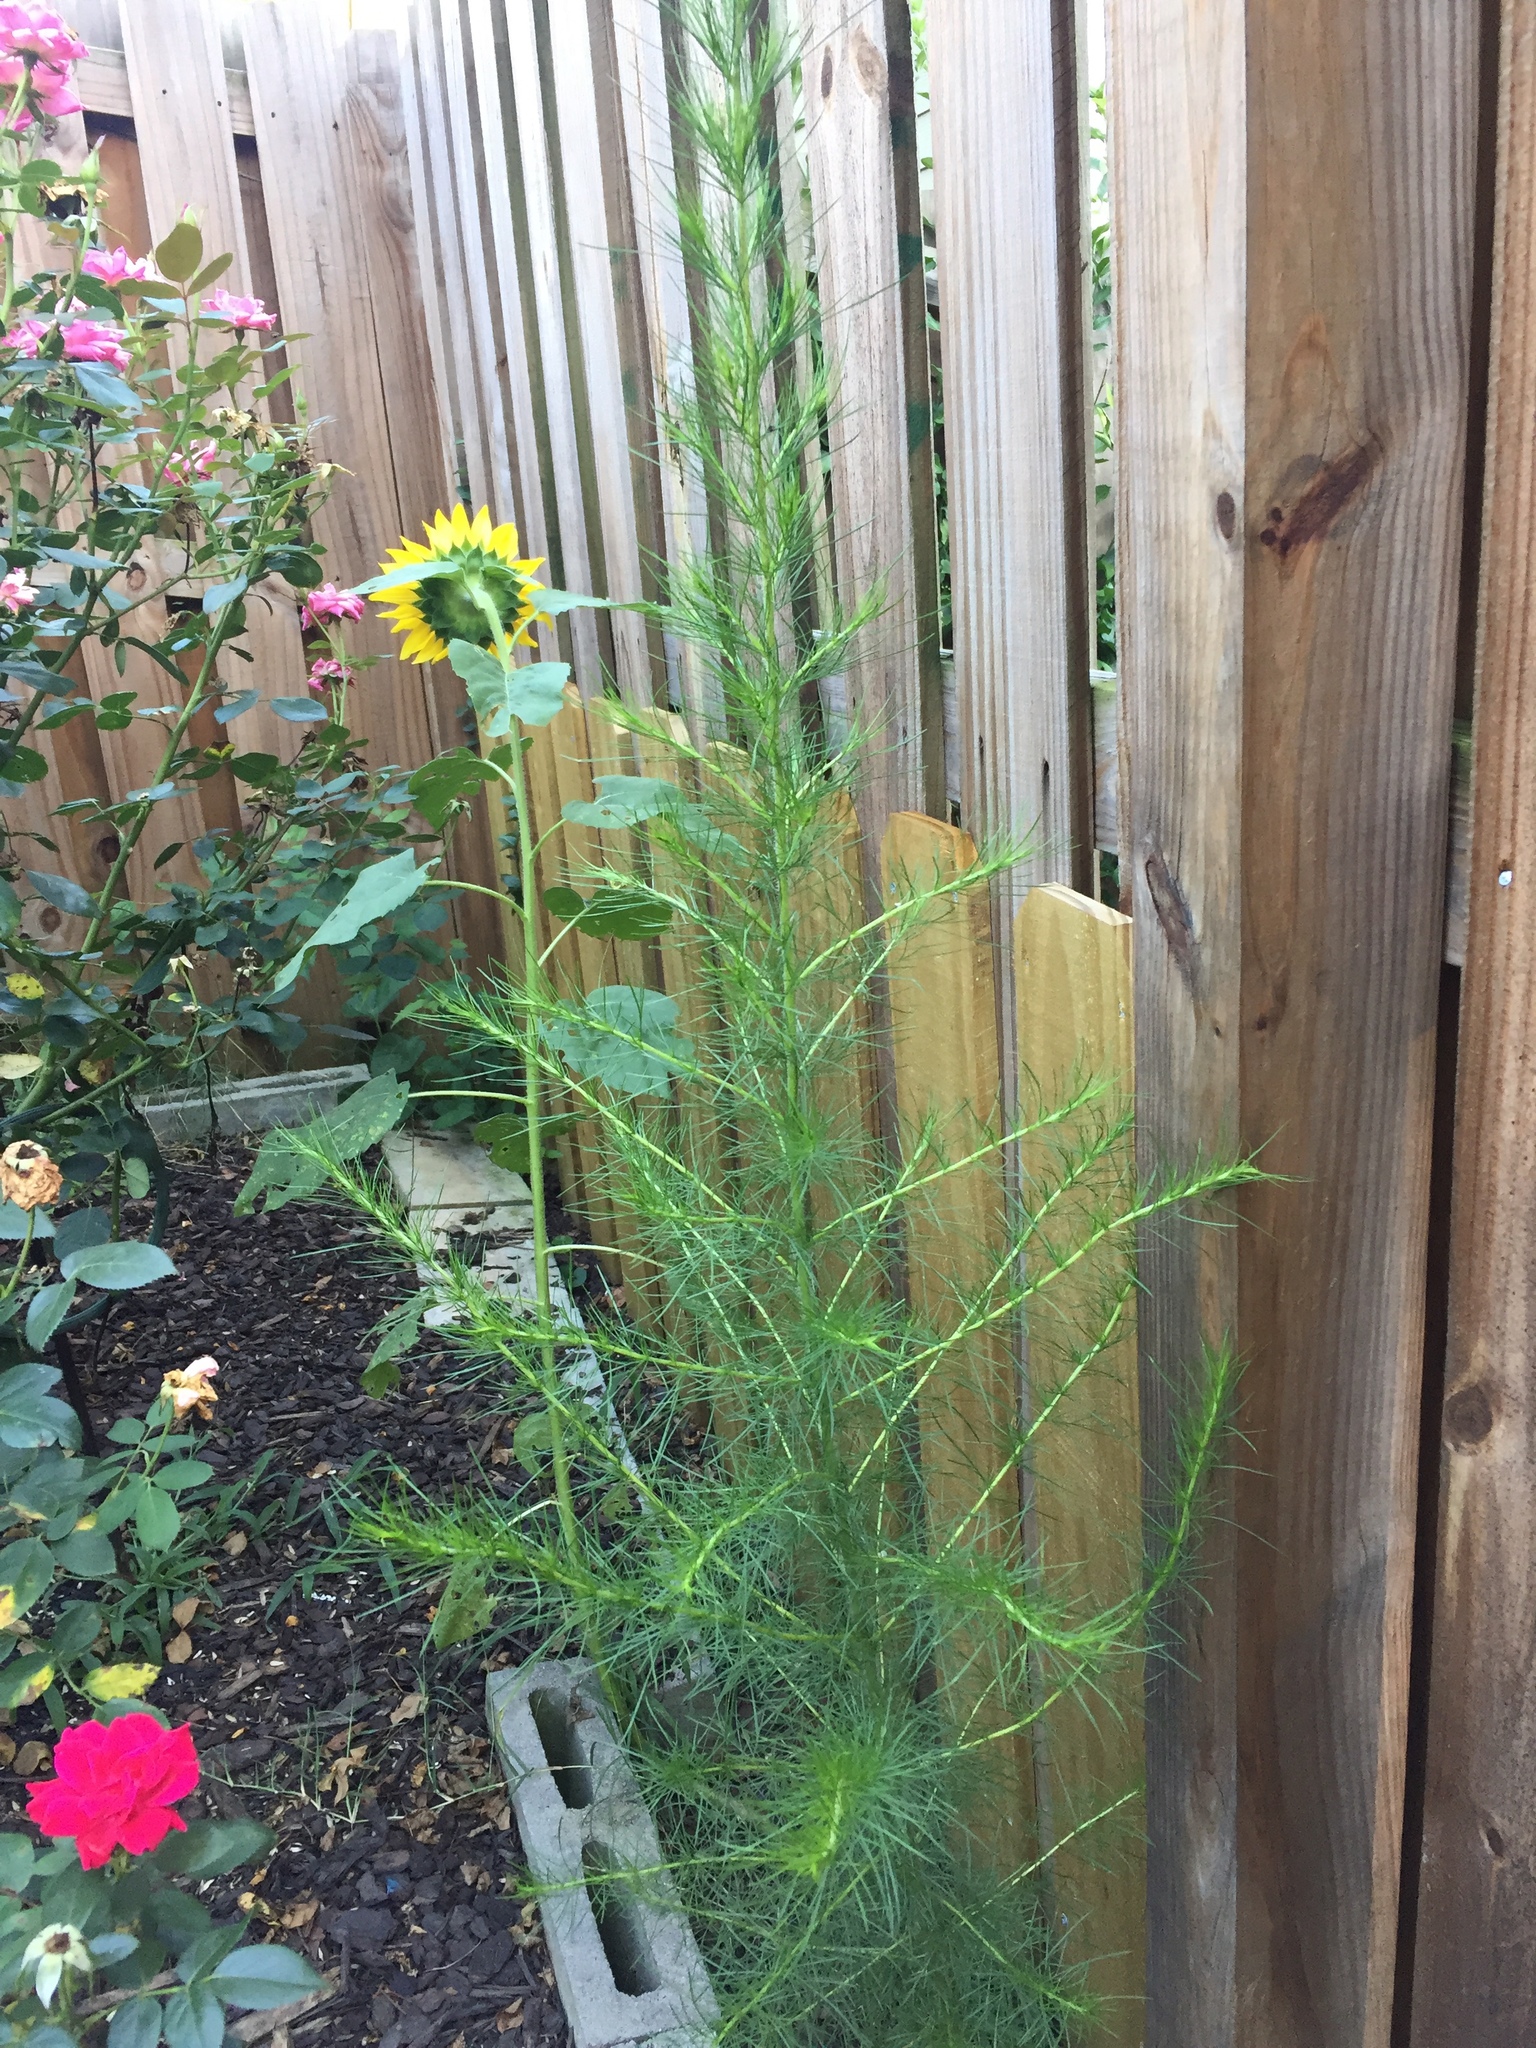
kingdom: Plantae
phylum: Tracheophyta
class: Magnoliopsida
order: Asterales
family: Asteraceae
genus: Eupatorium
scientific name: Eupatorium capillifolium
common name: Dog-fennel
